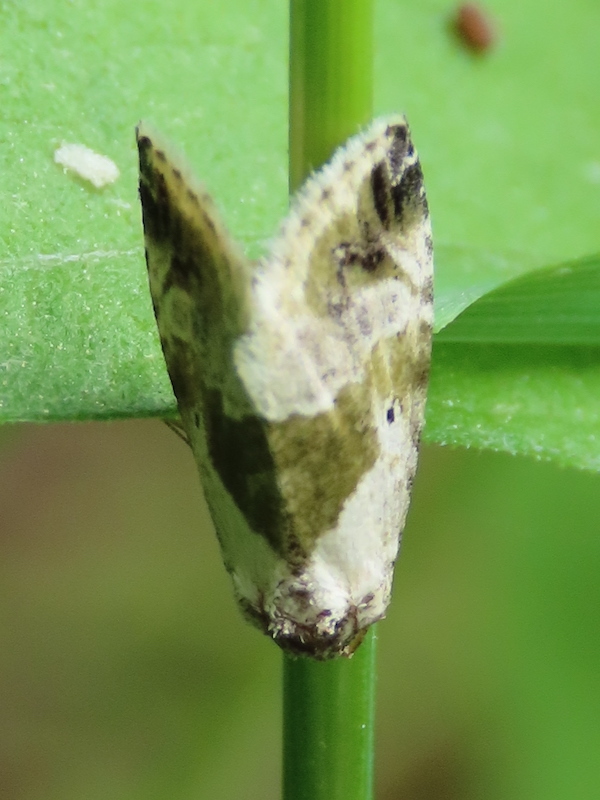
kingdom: Animalia
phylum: Arthropoda
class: Insecta
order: Lepidoptera
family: Noctuidae
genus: Maliattha
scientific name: Maliattha synochitis
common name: Black-dotted glyph
